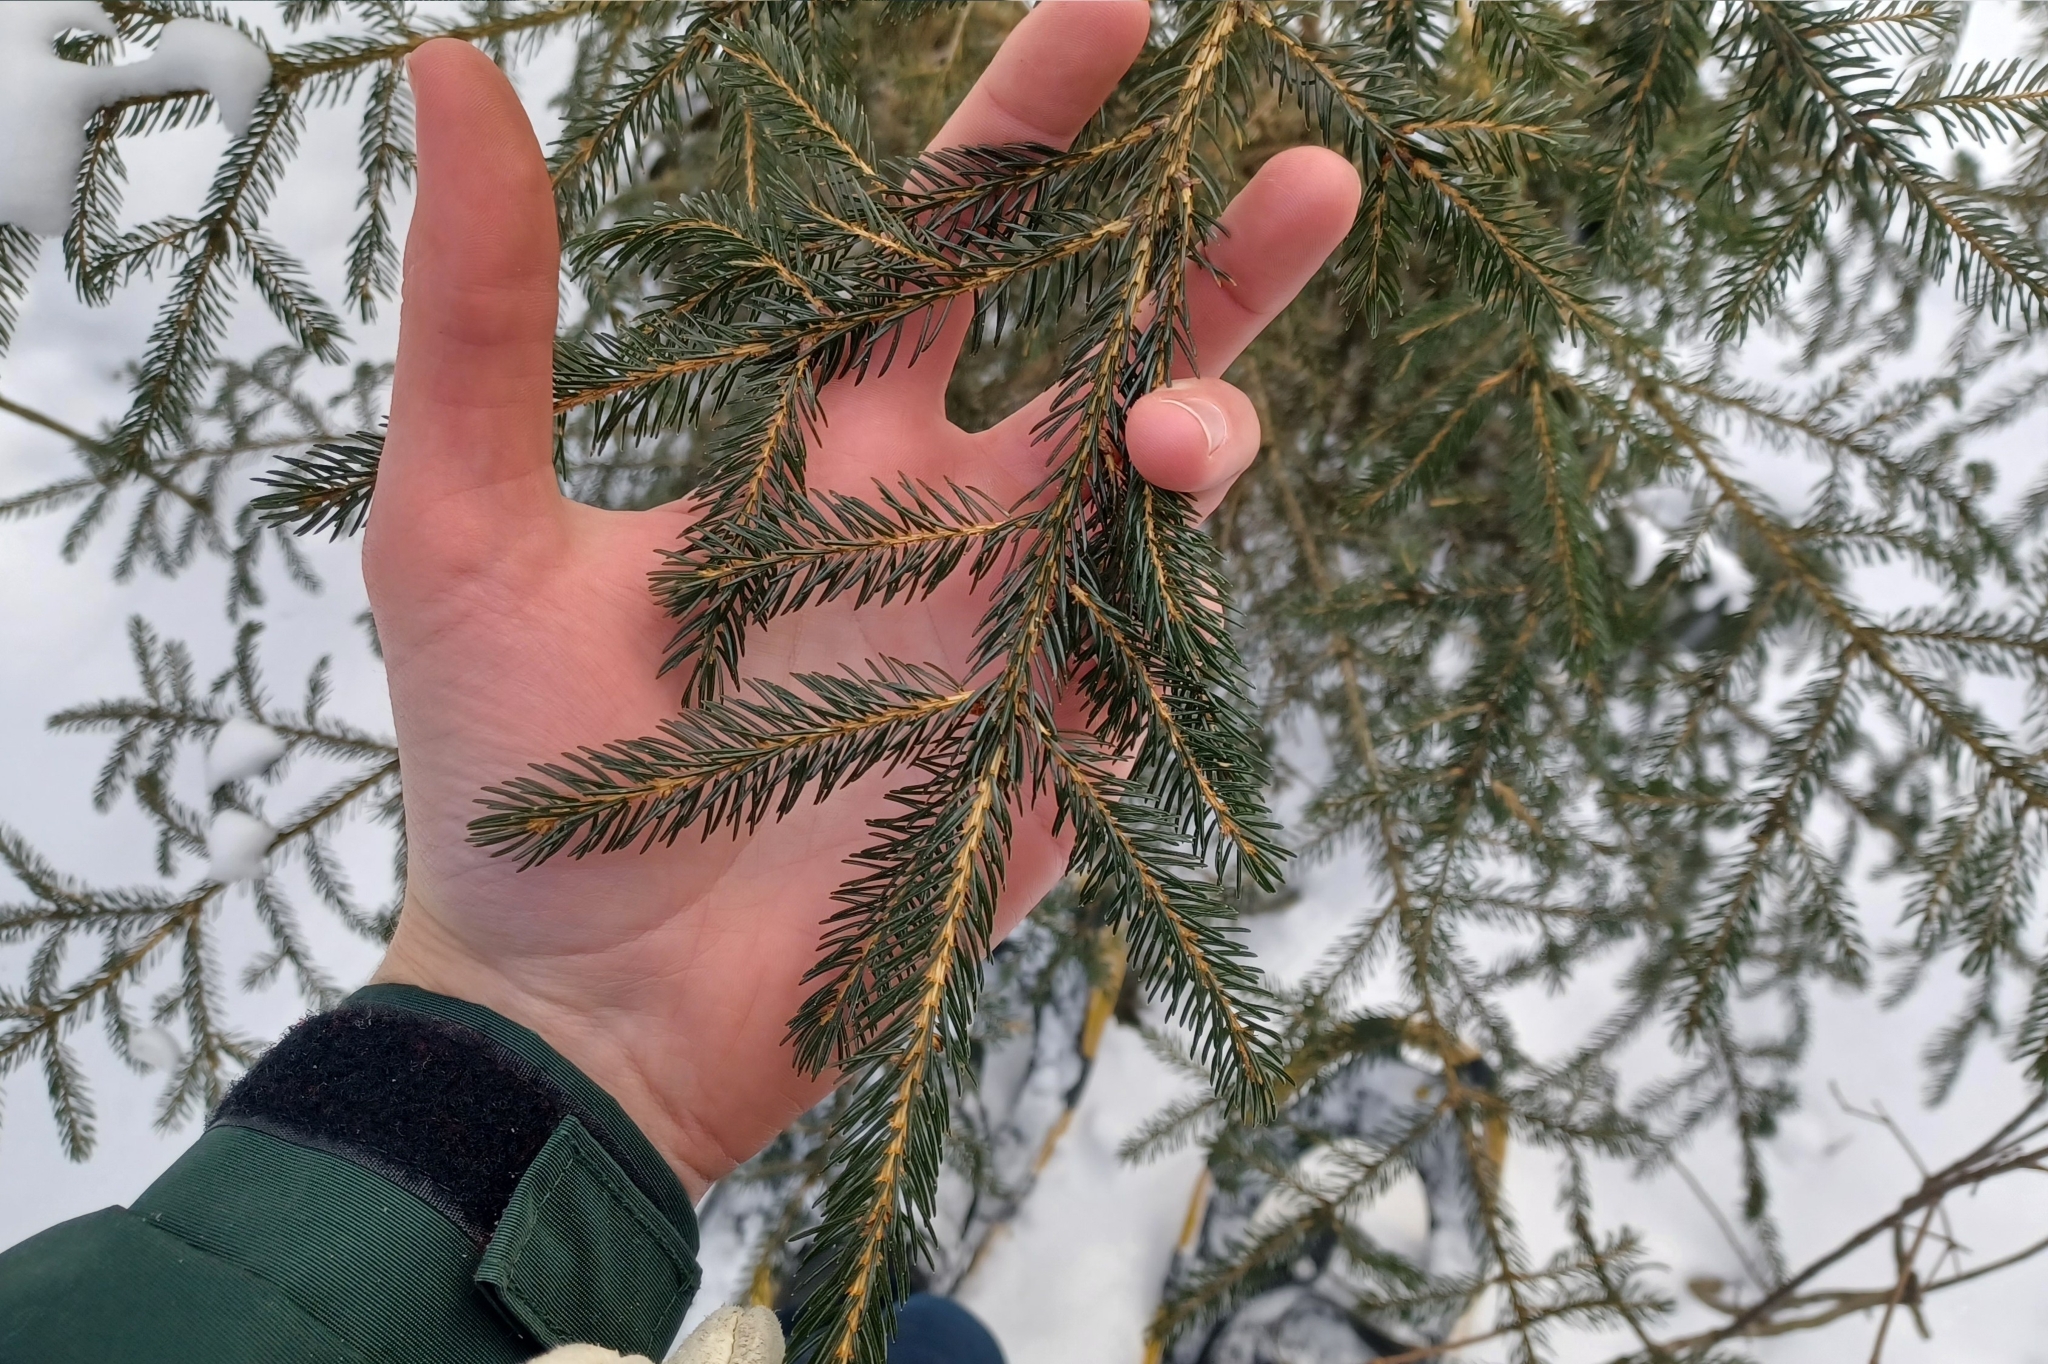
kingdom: Plantae
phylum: Tracheophyta
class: Pinopsida
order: Pinales
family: Pinaceae
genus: Picea
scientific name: Picea rubens
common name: Red spruce
